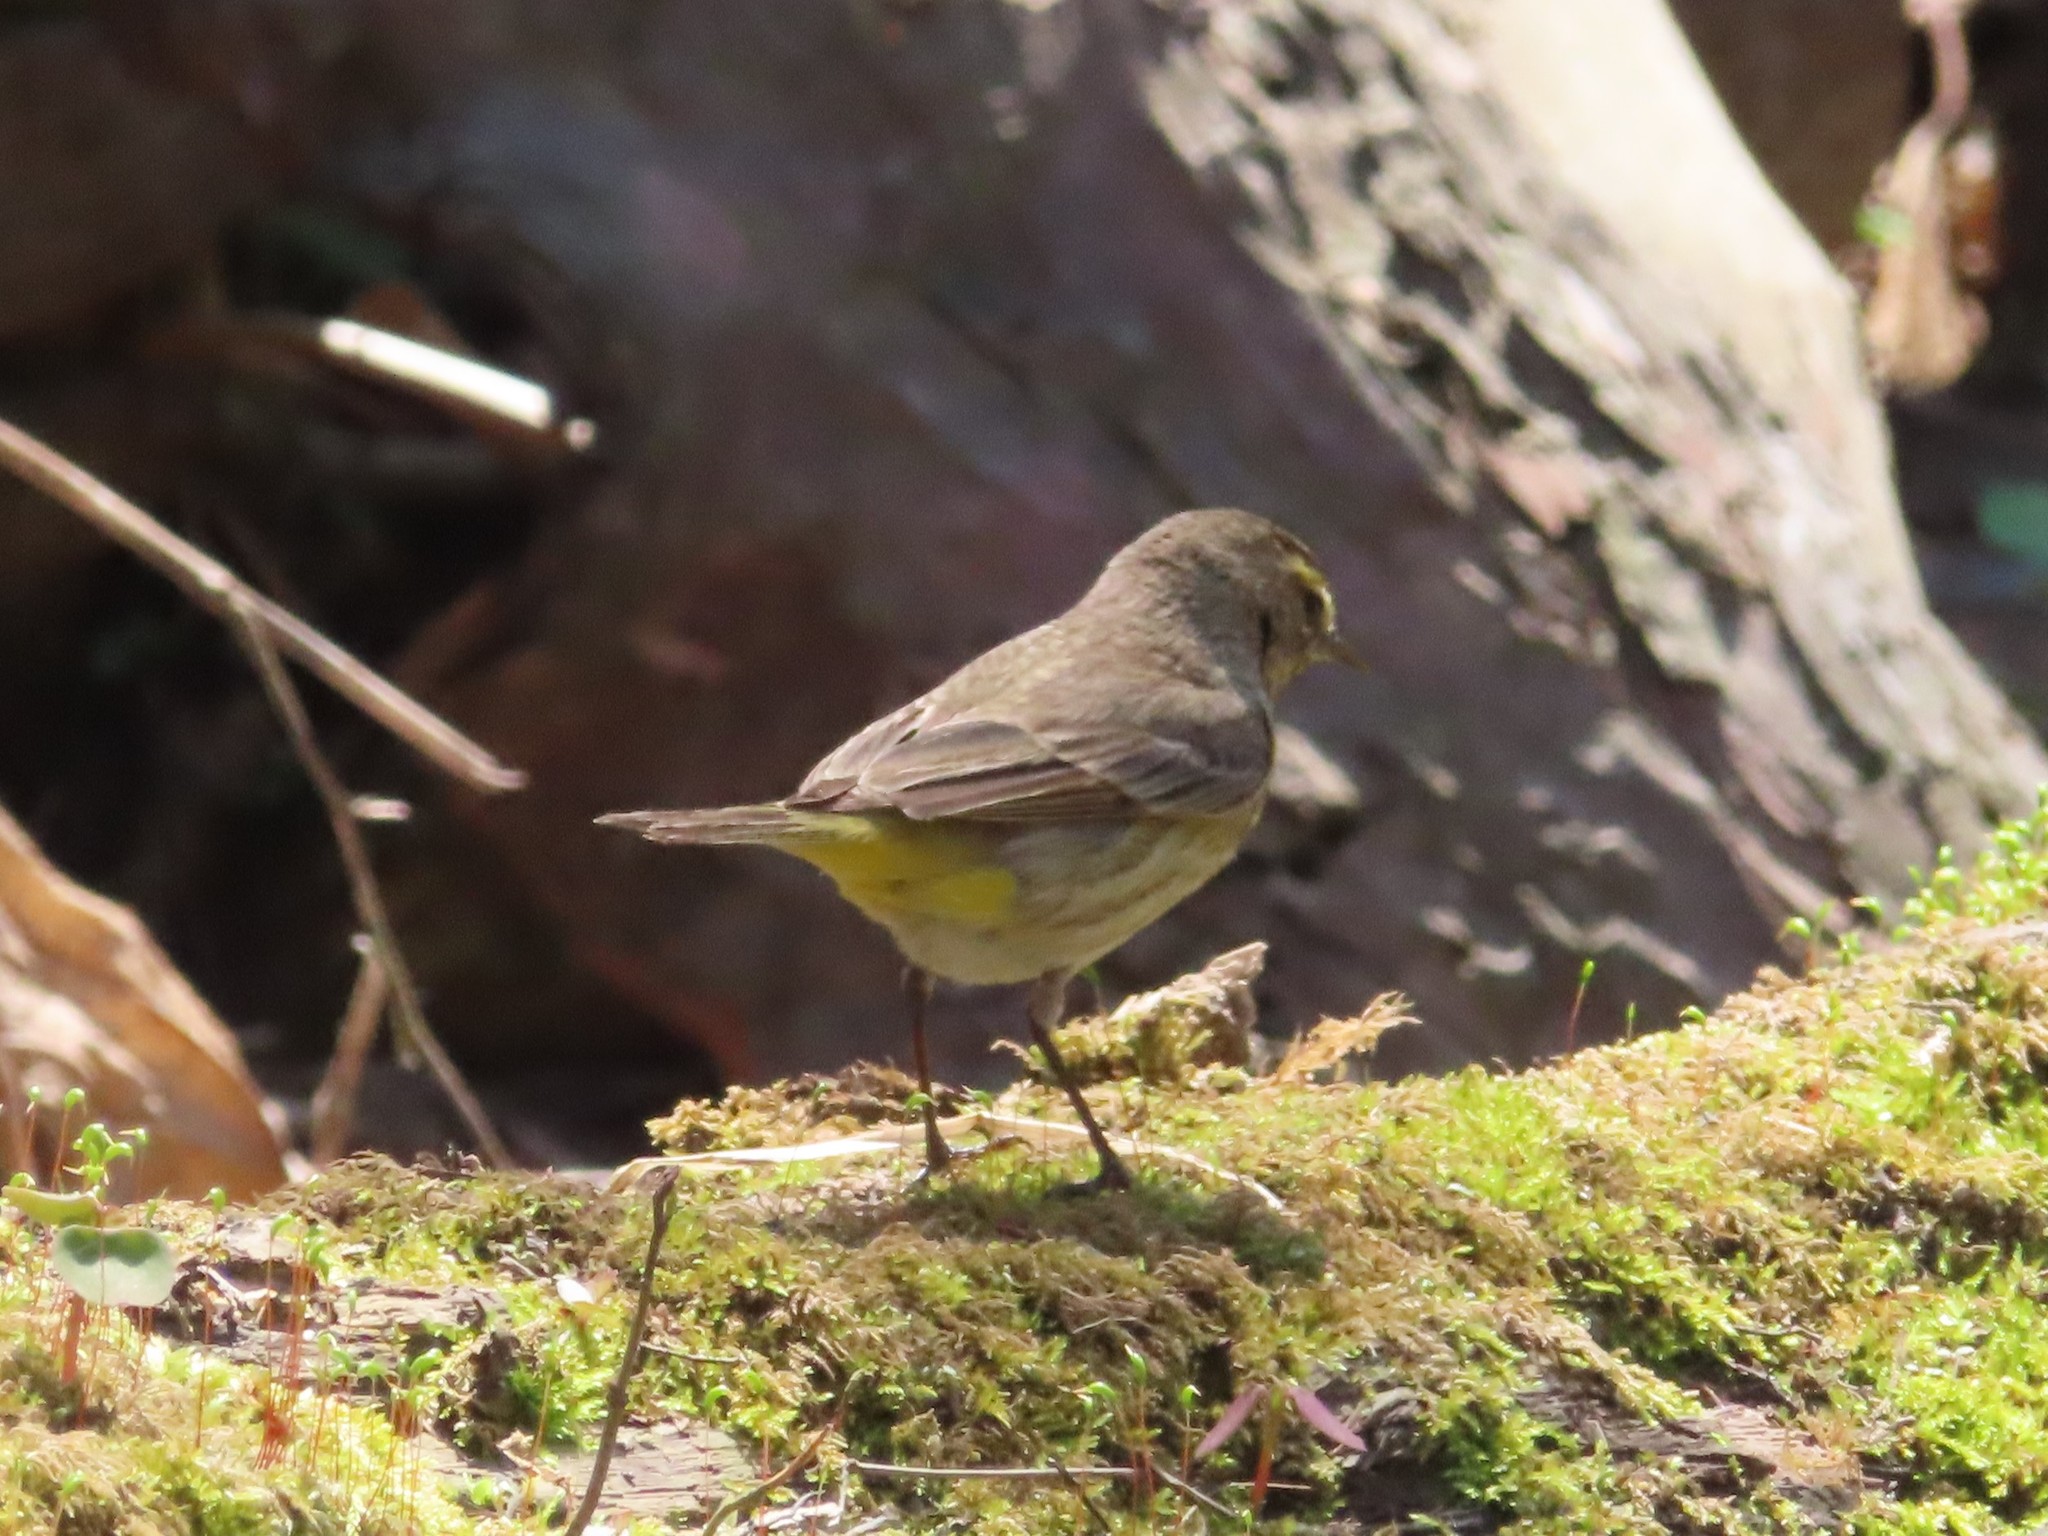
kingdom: Animalia
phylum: Chordata
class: Aves
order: Passeriformes
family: Parulidae
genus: Setophaga
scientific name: Setophaga palmarum
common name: Palm warbler
